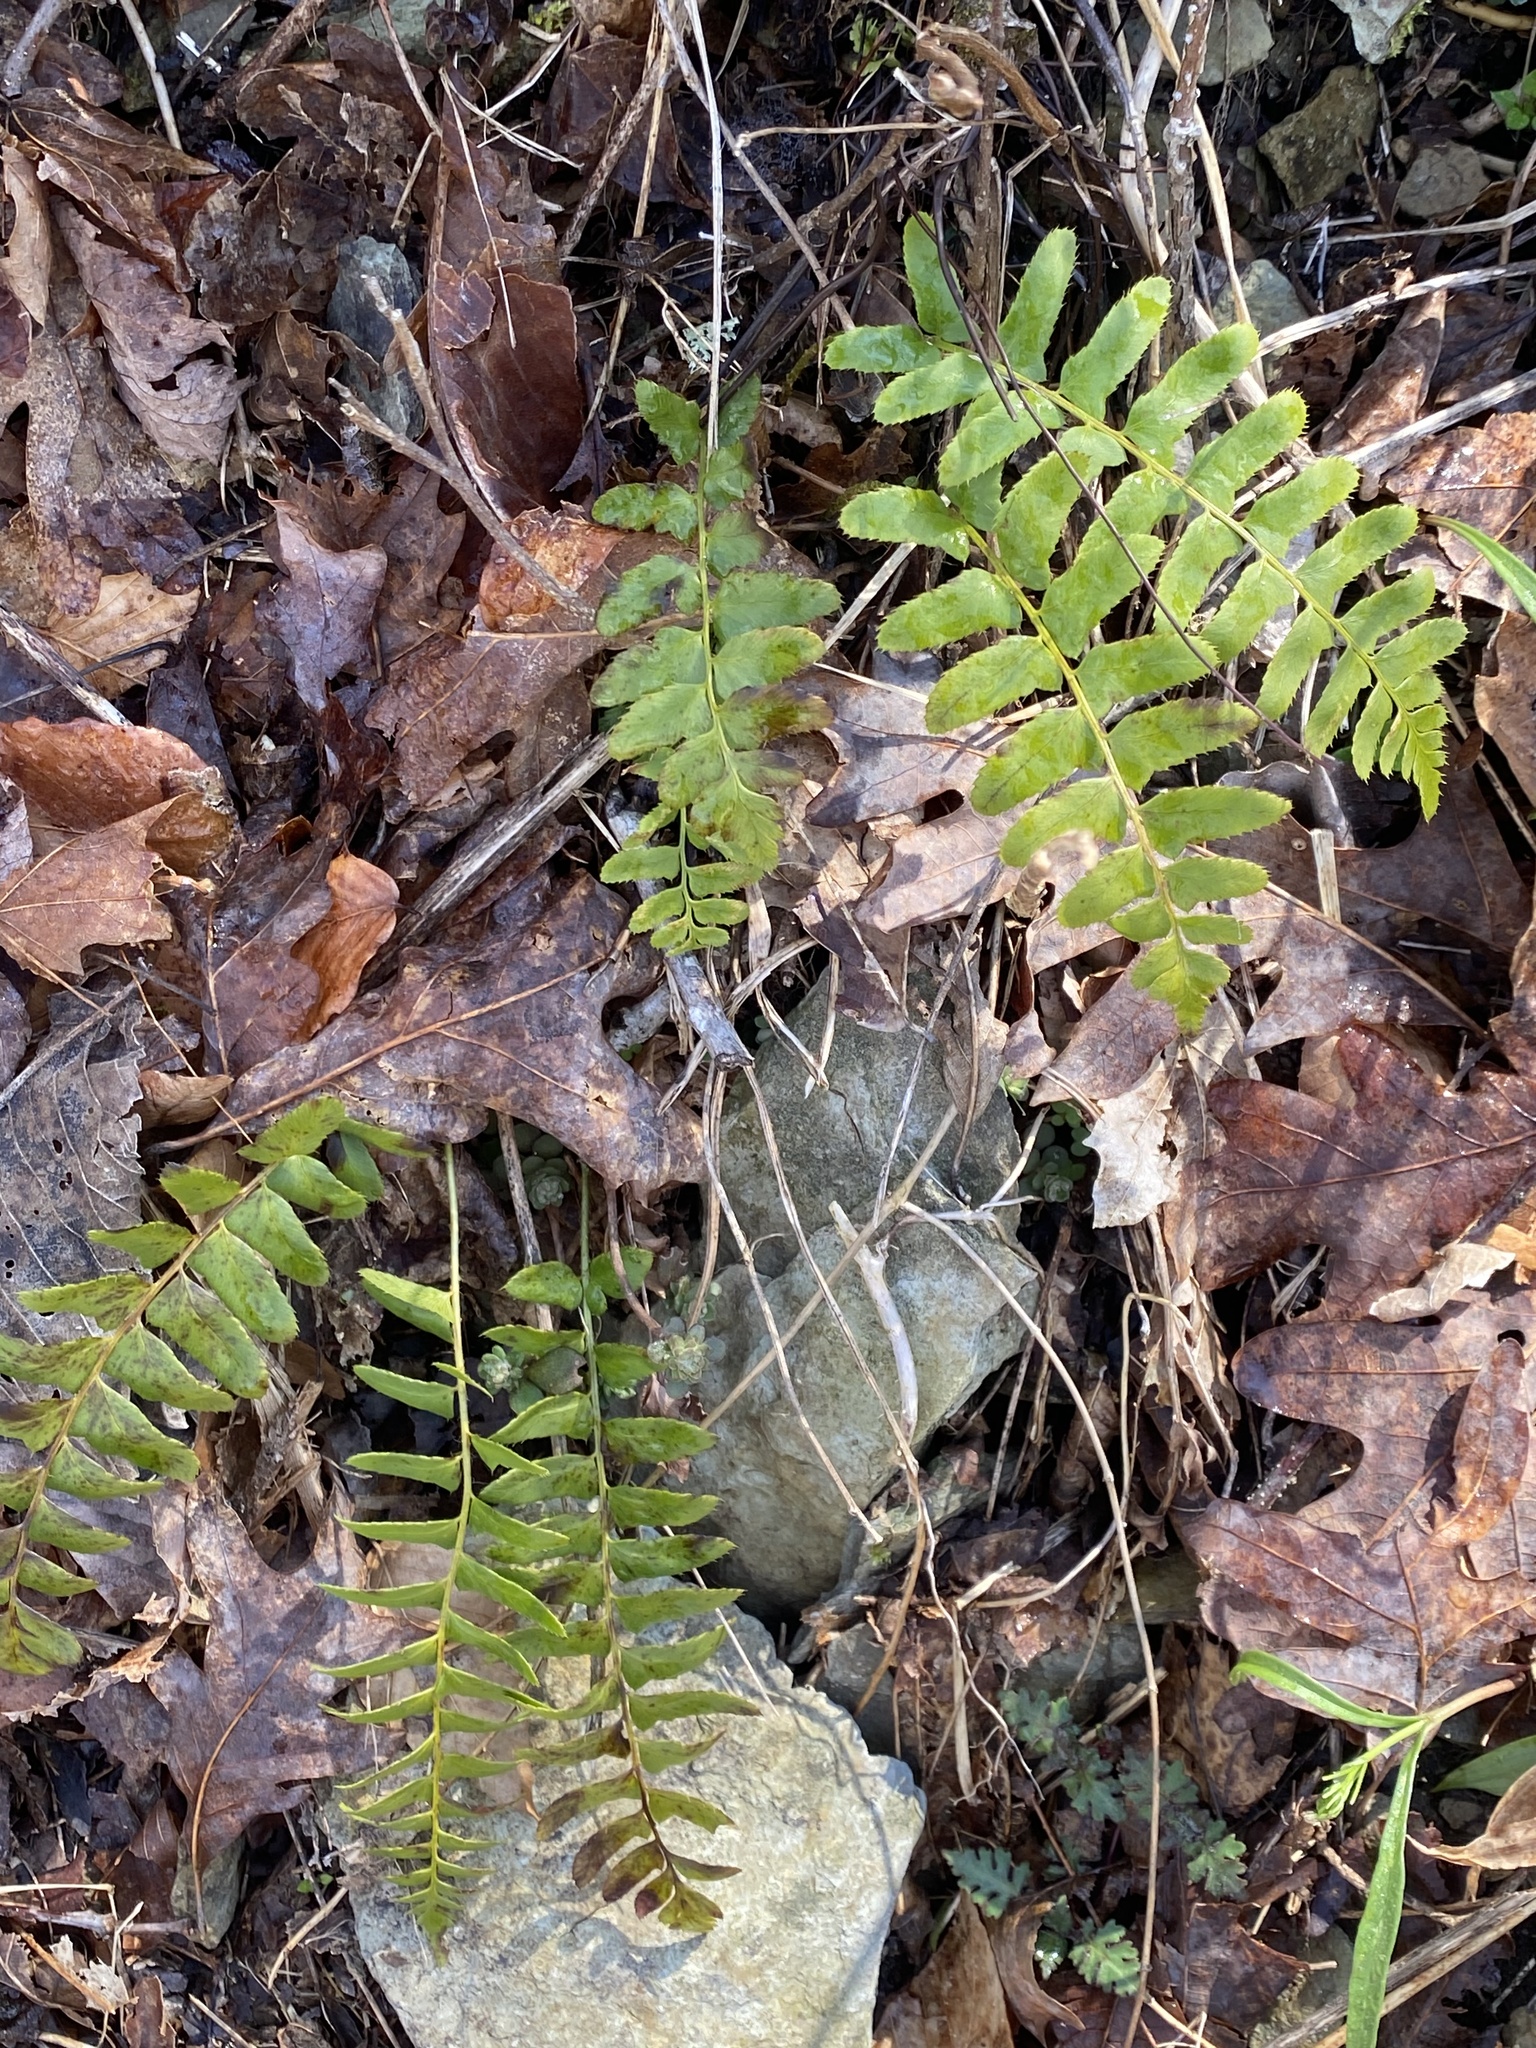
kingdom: Plantae
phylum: Tracheophyta
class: Polypodiopsida
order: Polypodiales
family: Dryopteridaceae
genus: Polystichum
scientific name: Polystichum acrostichoides
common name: Christmas fern
